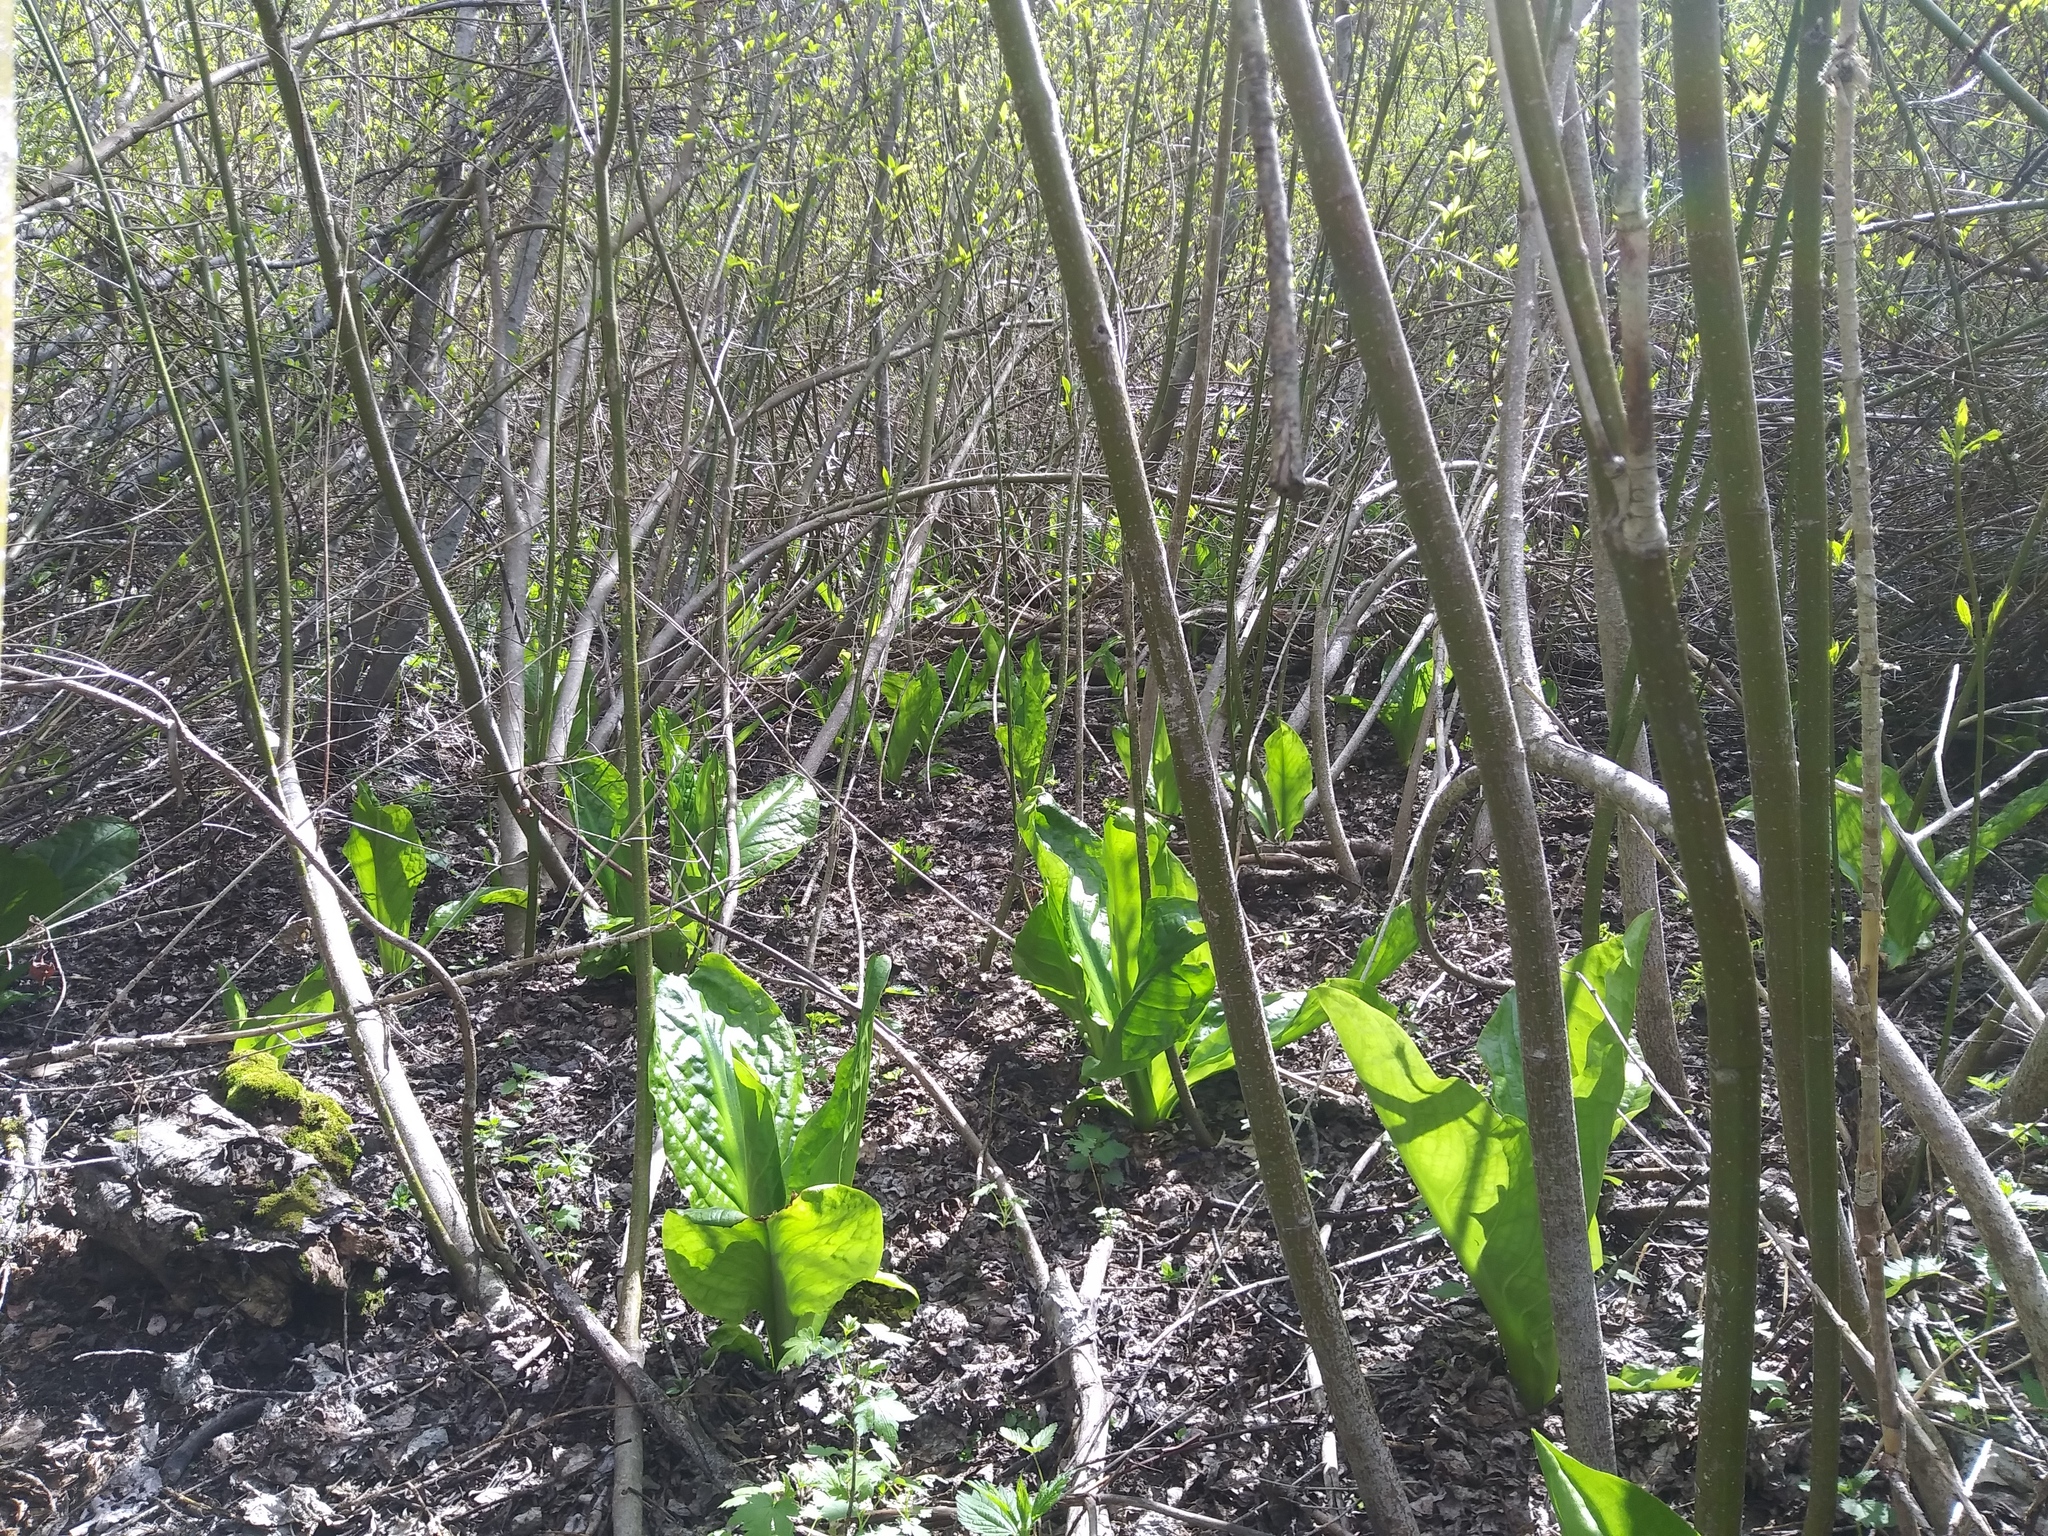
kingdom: Plantae
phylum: Tracheophyta
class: Liliopsida
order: Alismatales
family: Araceae
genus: Lysichiton
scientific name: Lysichiton americanus
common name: American skunk cabbage
